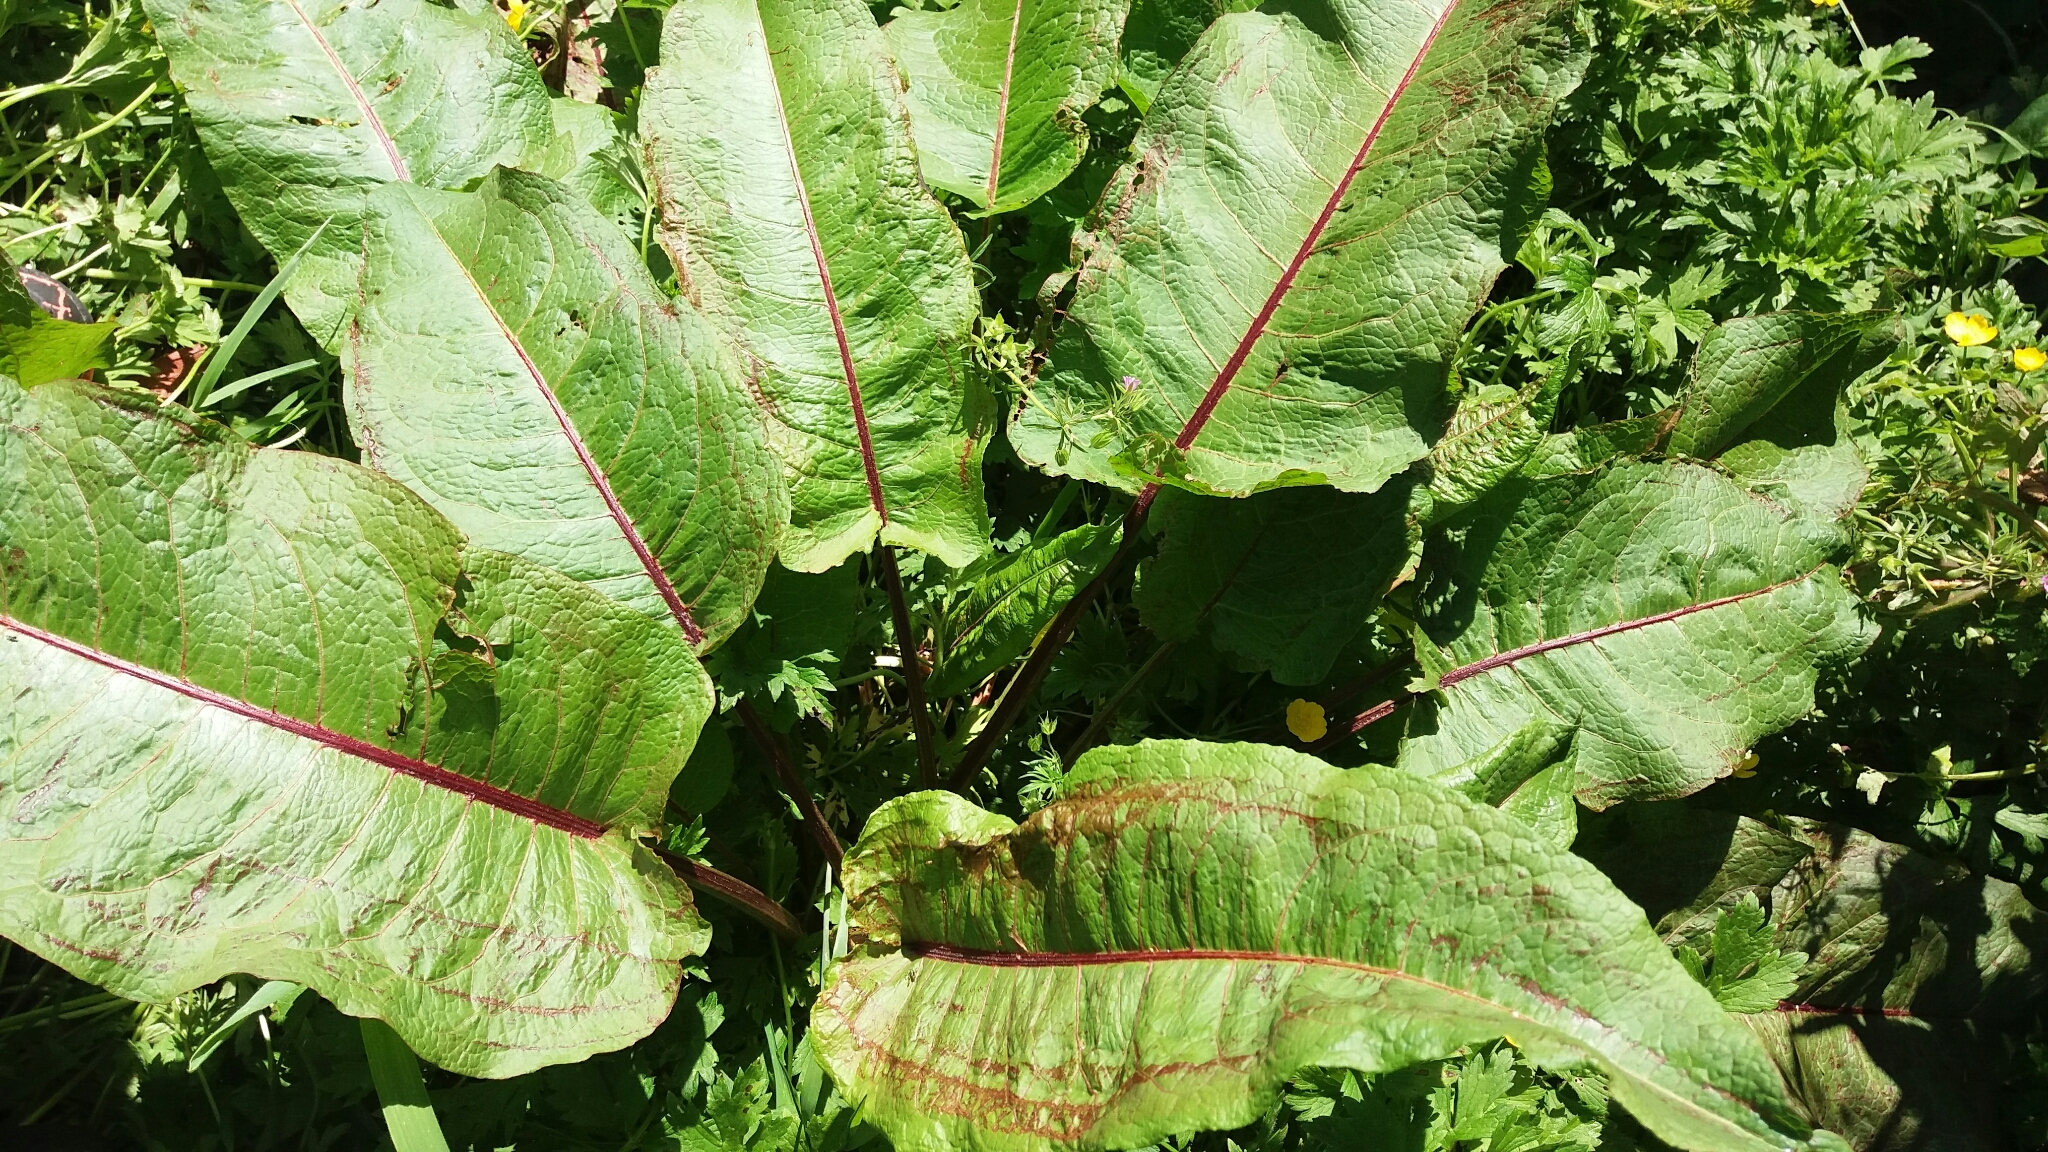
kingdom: Plantae
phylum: Tracheophyta
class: Magnoliopsida
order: Caryophyllales
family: Polygonaceae
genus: Rumex
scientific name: Rumex obtusifolius
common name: Bitter dock
